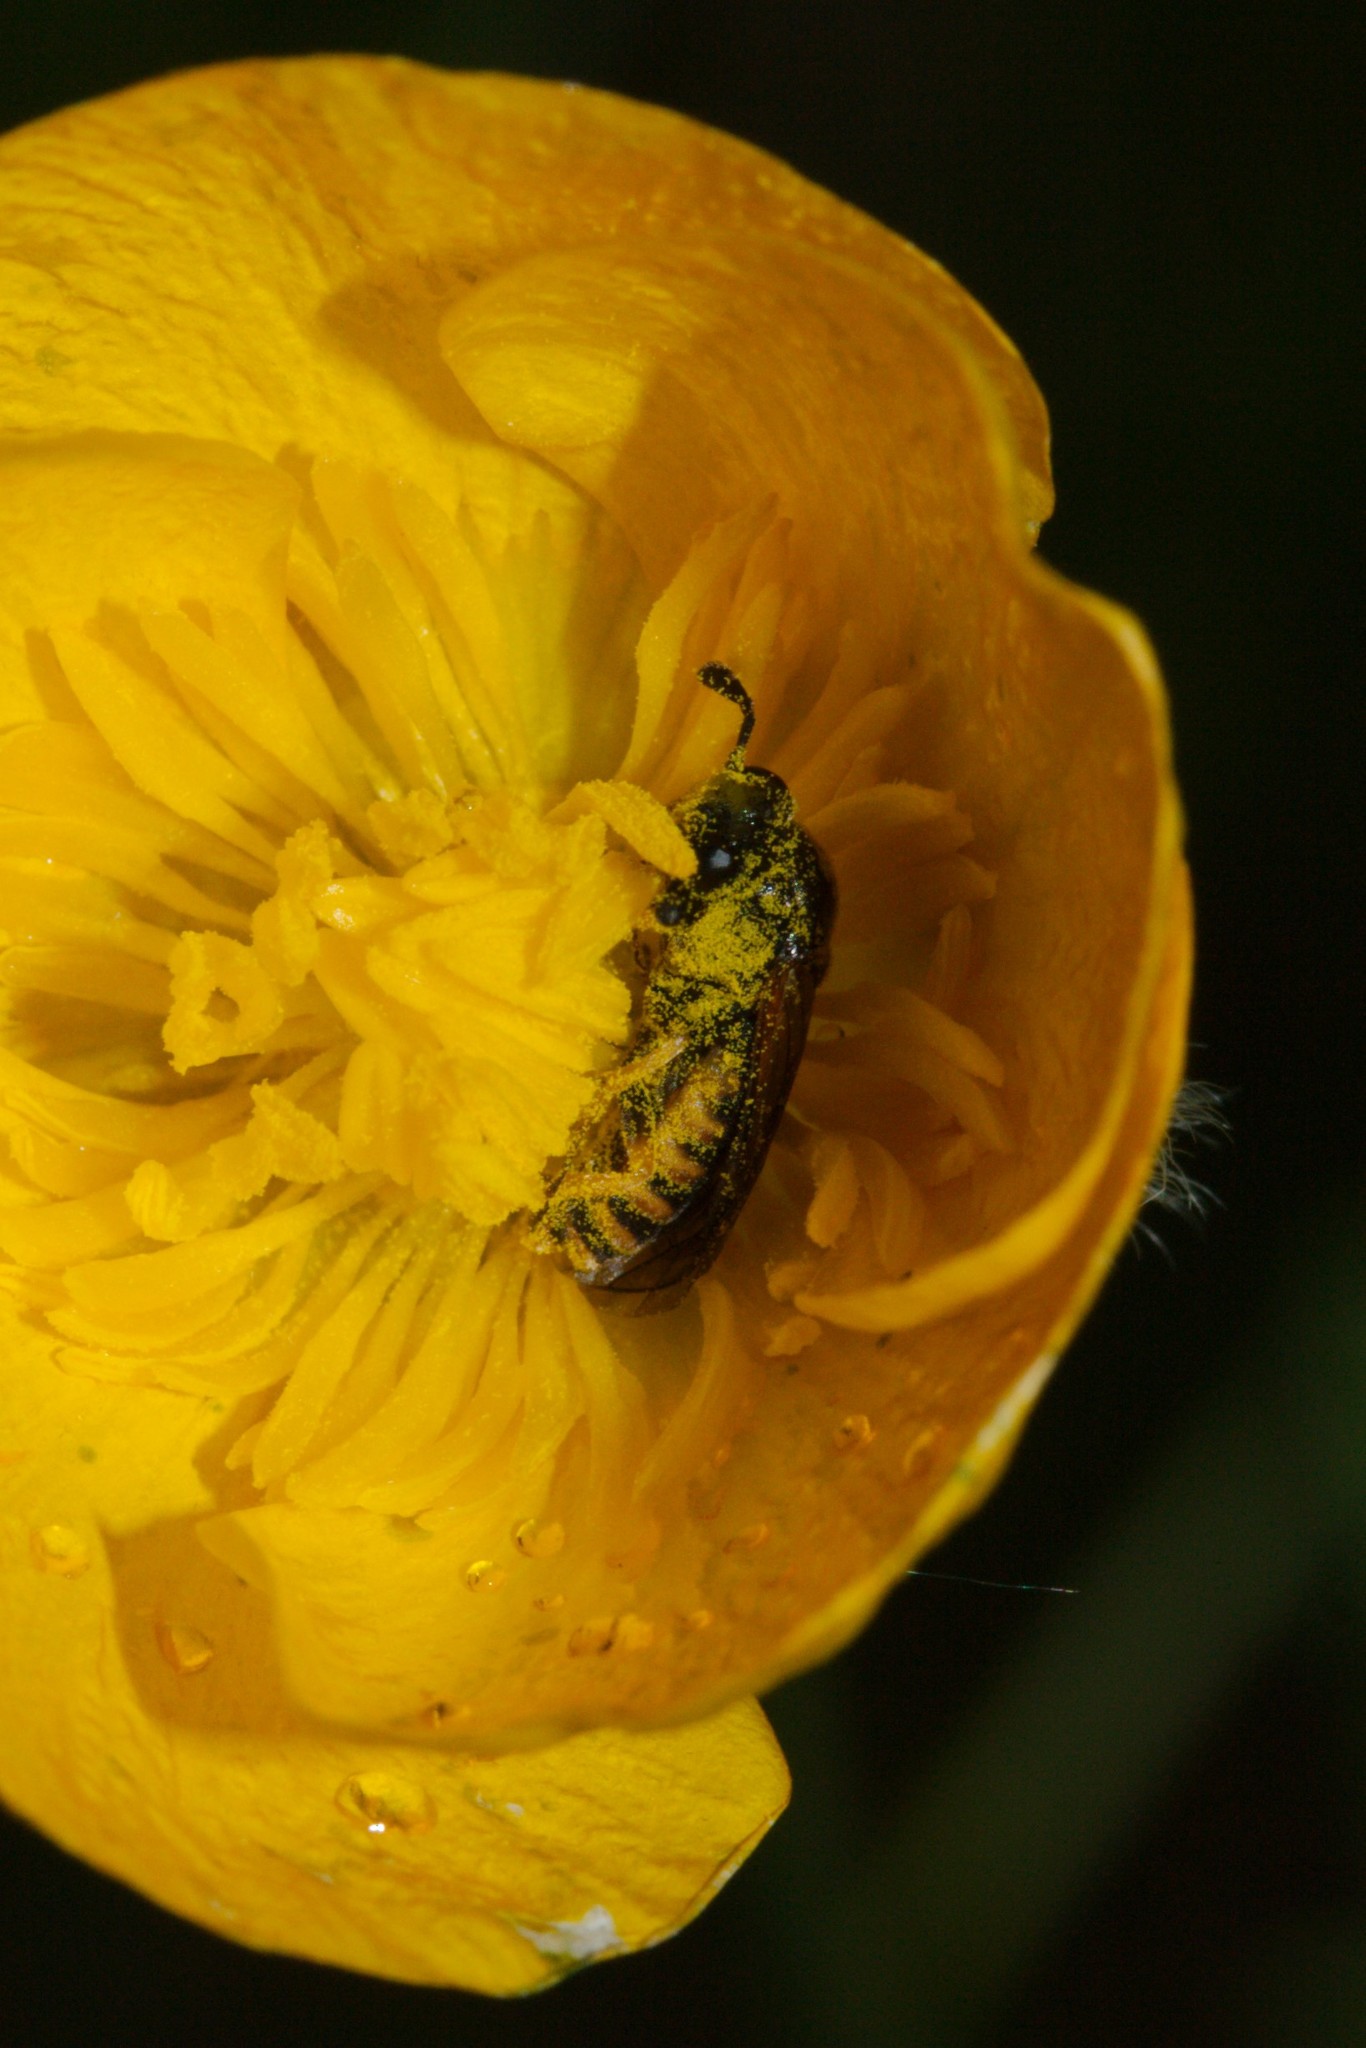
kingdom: Animalia
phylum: Arthropoda
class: Insecta
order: Hymenoptera
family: Cimbicidae
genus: Corynis
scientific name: Corynis crassicornis
